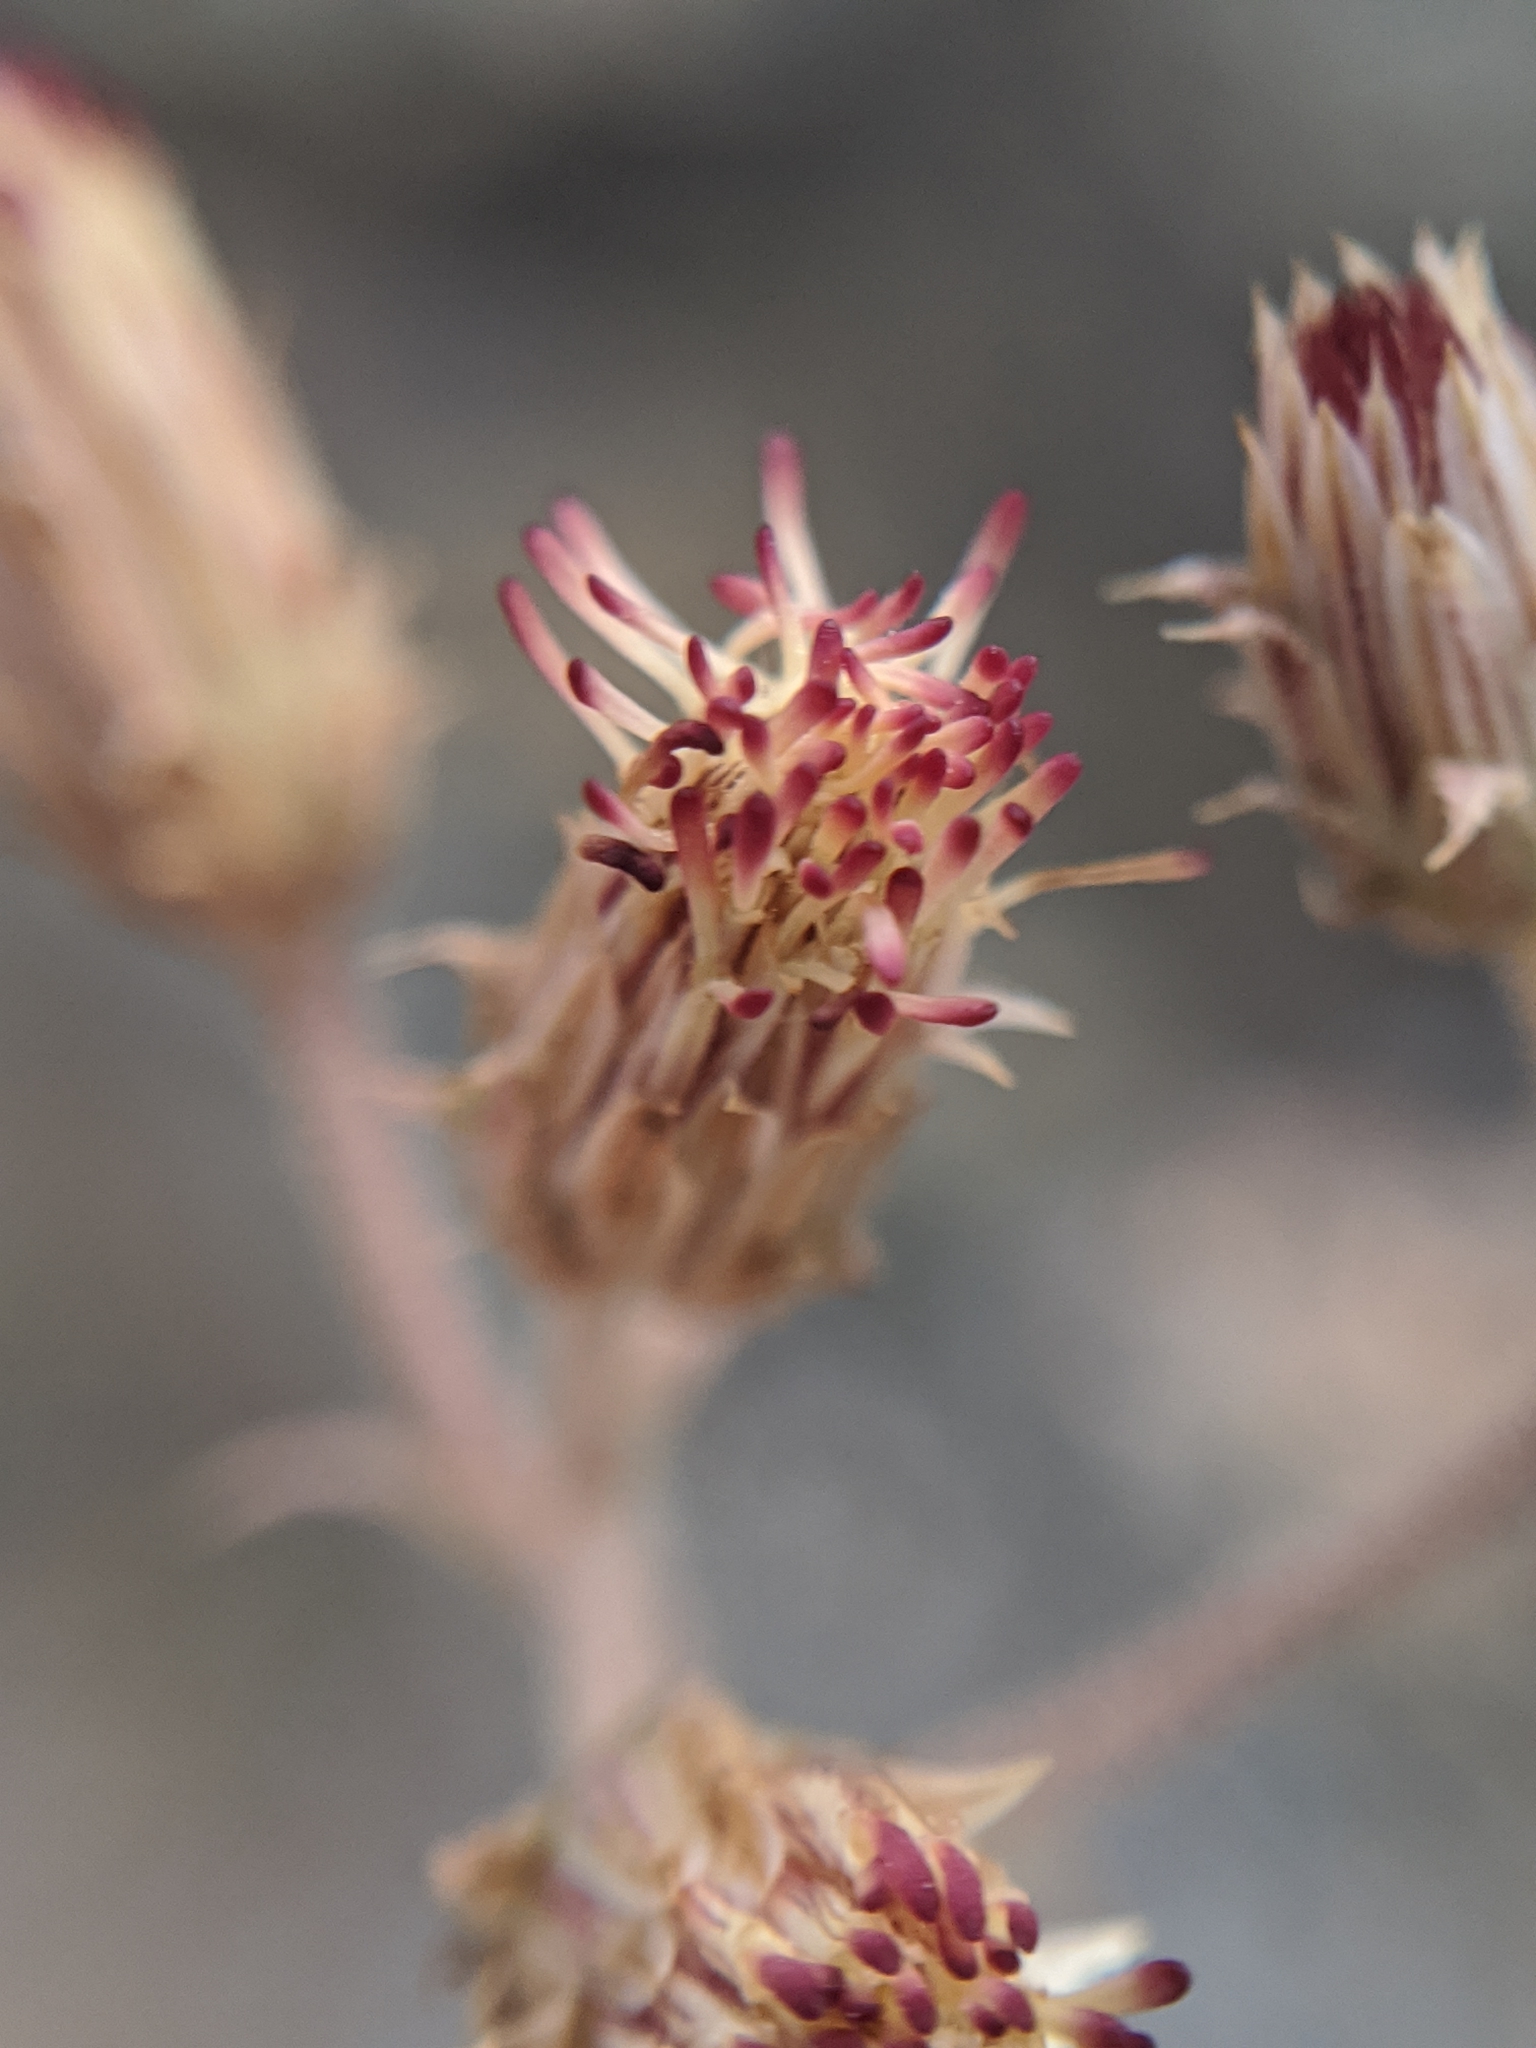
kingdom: Plantae
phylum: Tracheophyta
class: Magnoliopsida
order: Asterales
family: Asteraceae
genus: Pleurocoronis
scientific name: Pleurocoronis pluriseta
